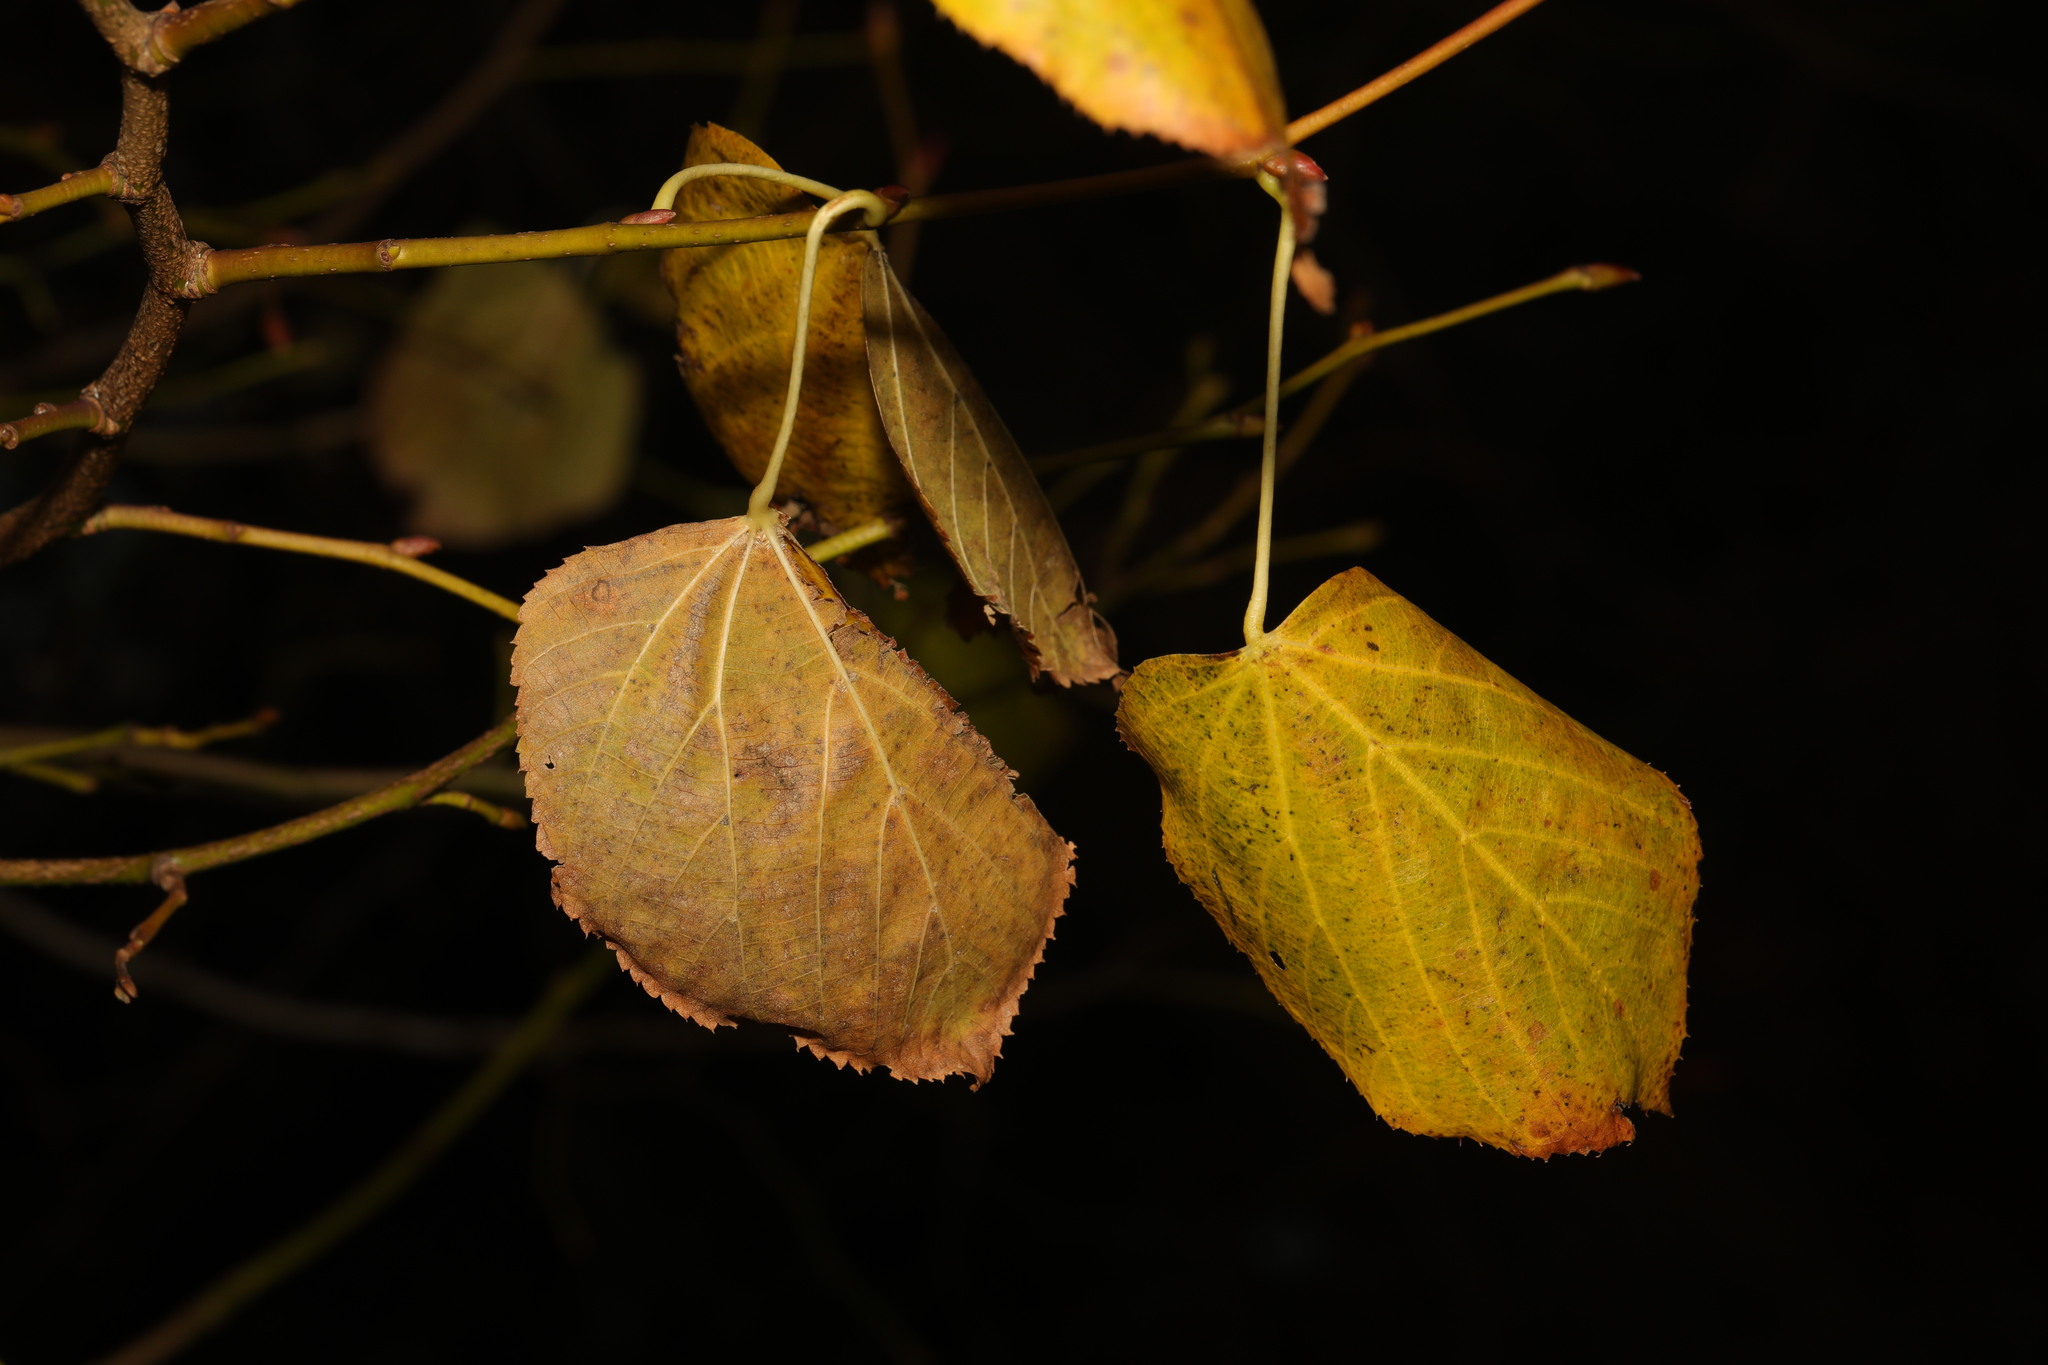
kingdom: Plantae
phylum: Tracheophyta
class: Magnoliopsida
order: Malvales
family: Malvaceae
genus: Tilia
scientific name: Tilia europaea
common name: European linden
